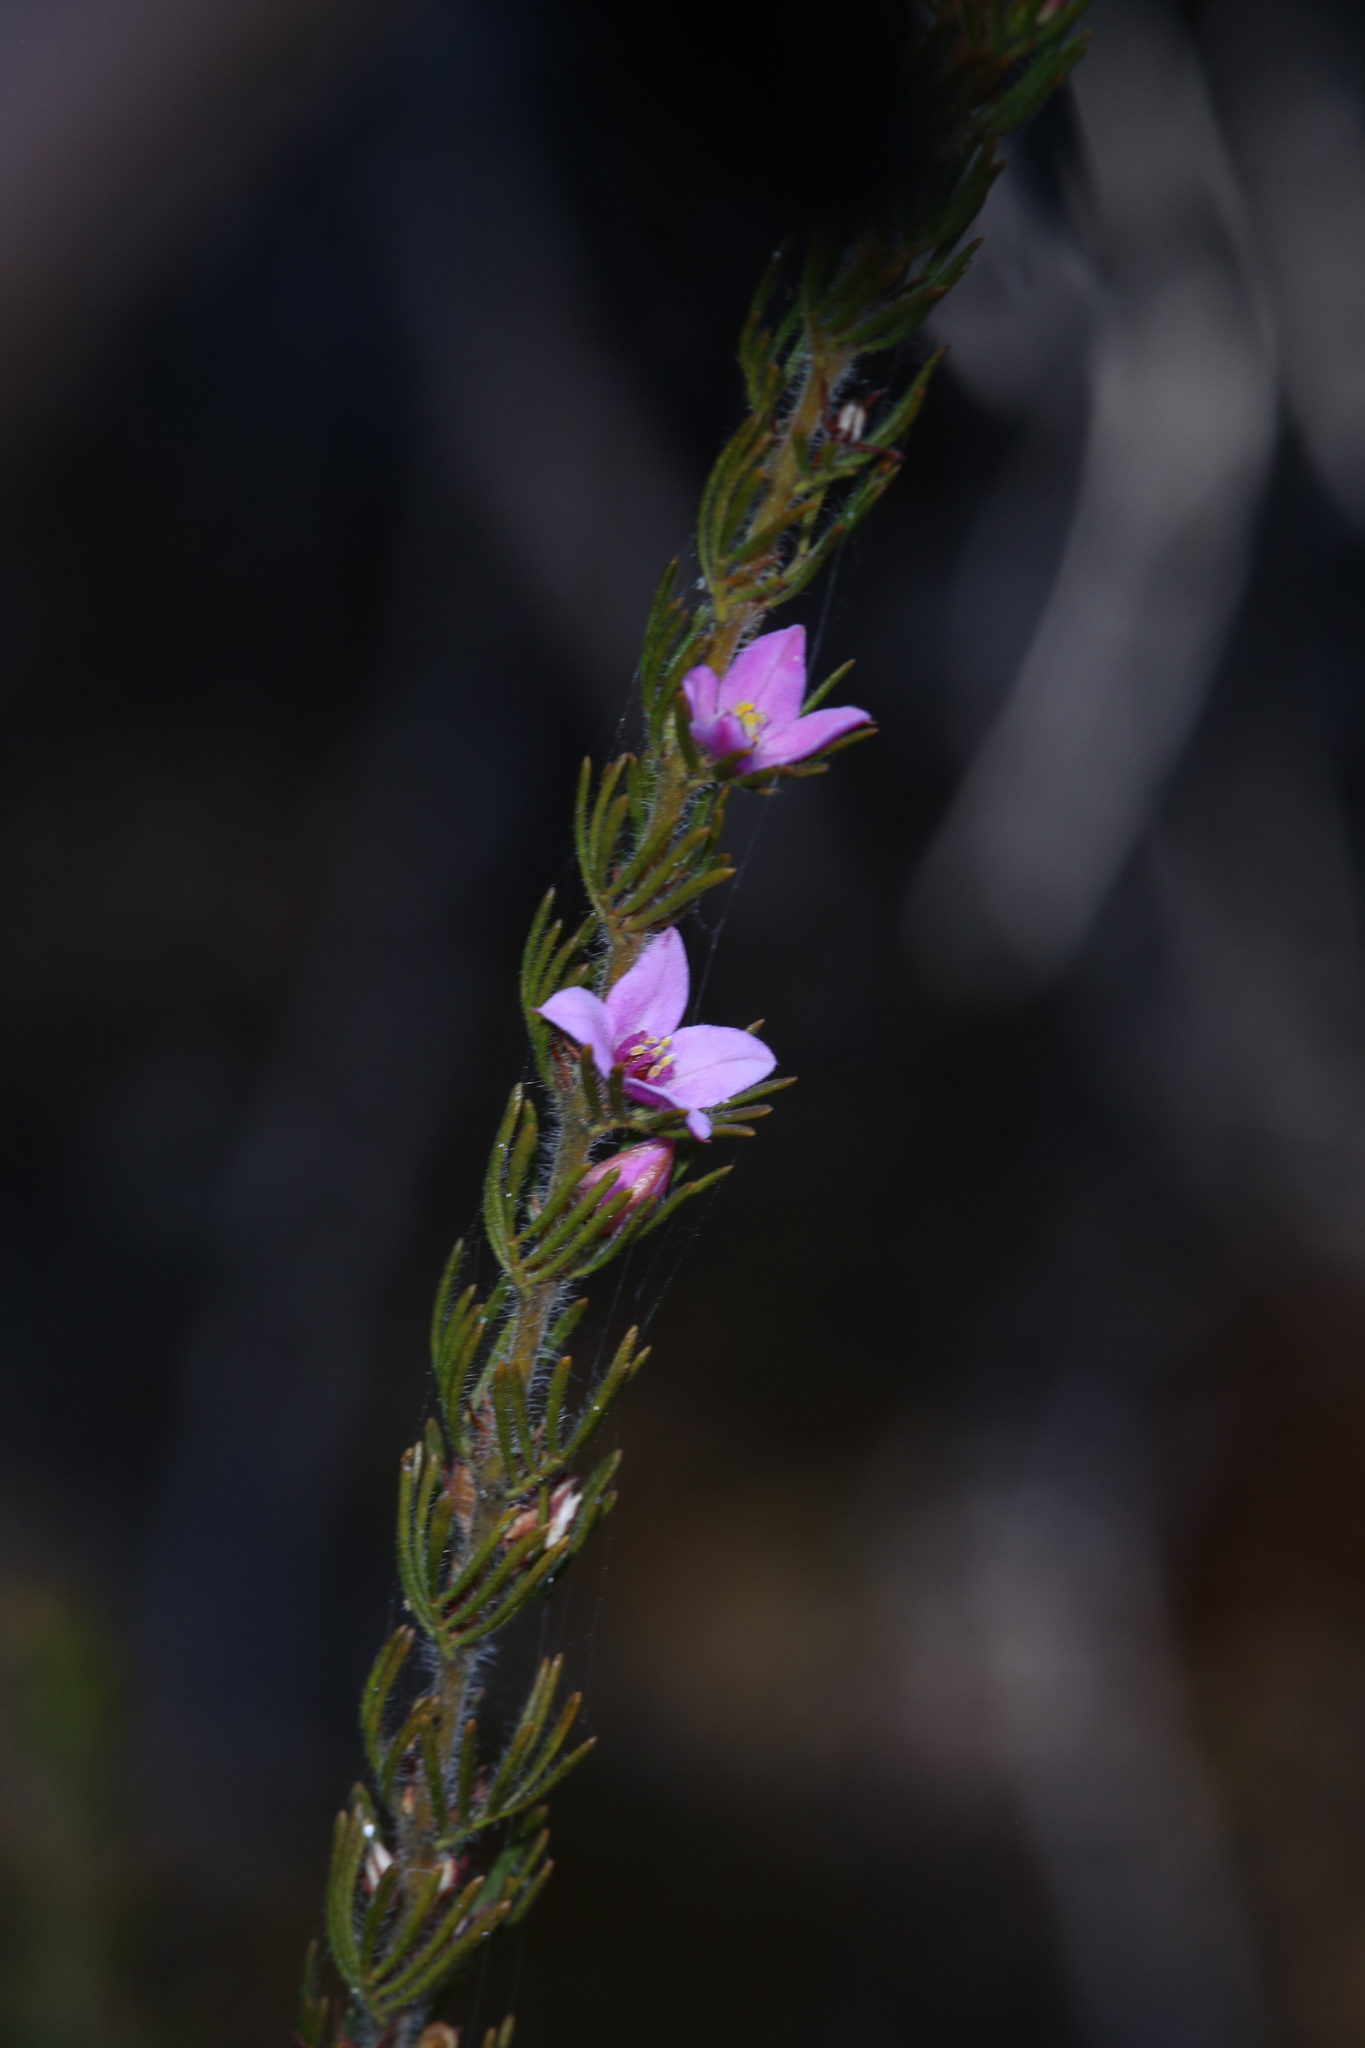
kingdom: Plantae
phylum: Tracheophyta
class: Magnoliopsida
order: Sapindales
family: Rutaceae
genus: Boronia
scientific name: Boronia stricta
